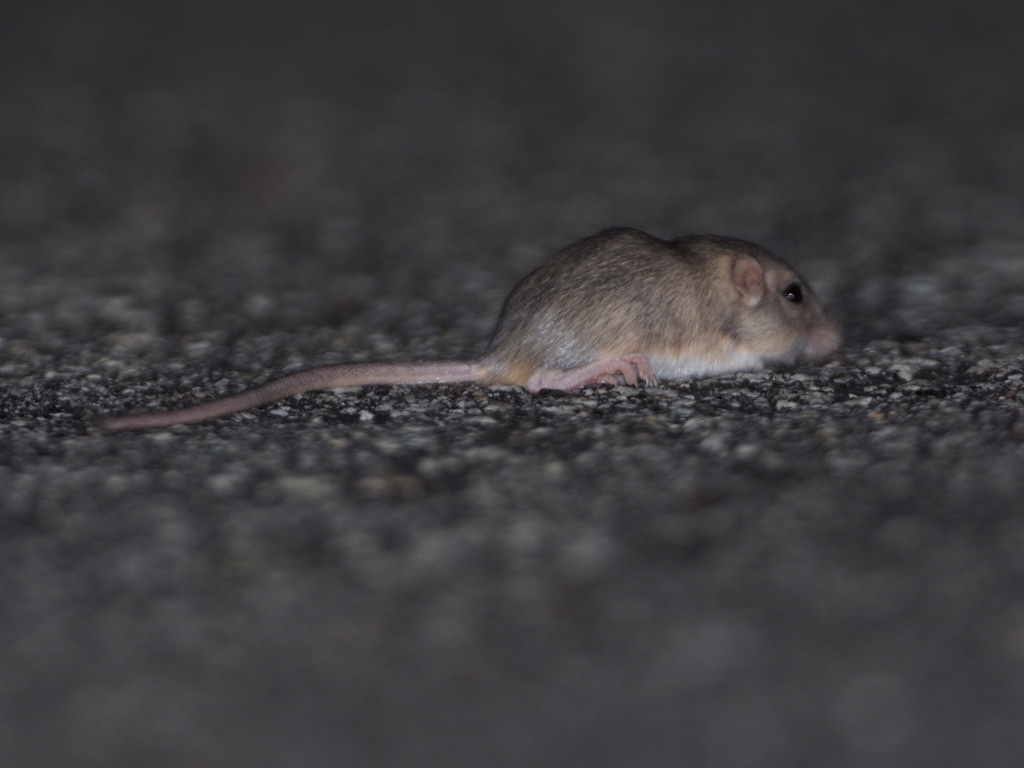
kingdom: Animalia
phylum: Chordata
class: Mammalia
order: Rodentia
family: Heteromyidae
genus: Perognathus
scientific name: Perognathus longimembris
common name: Little pocket mouse
